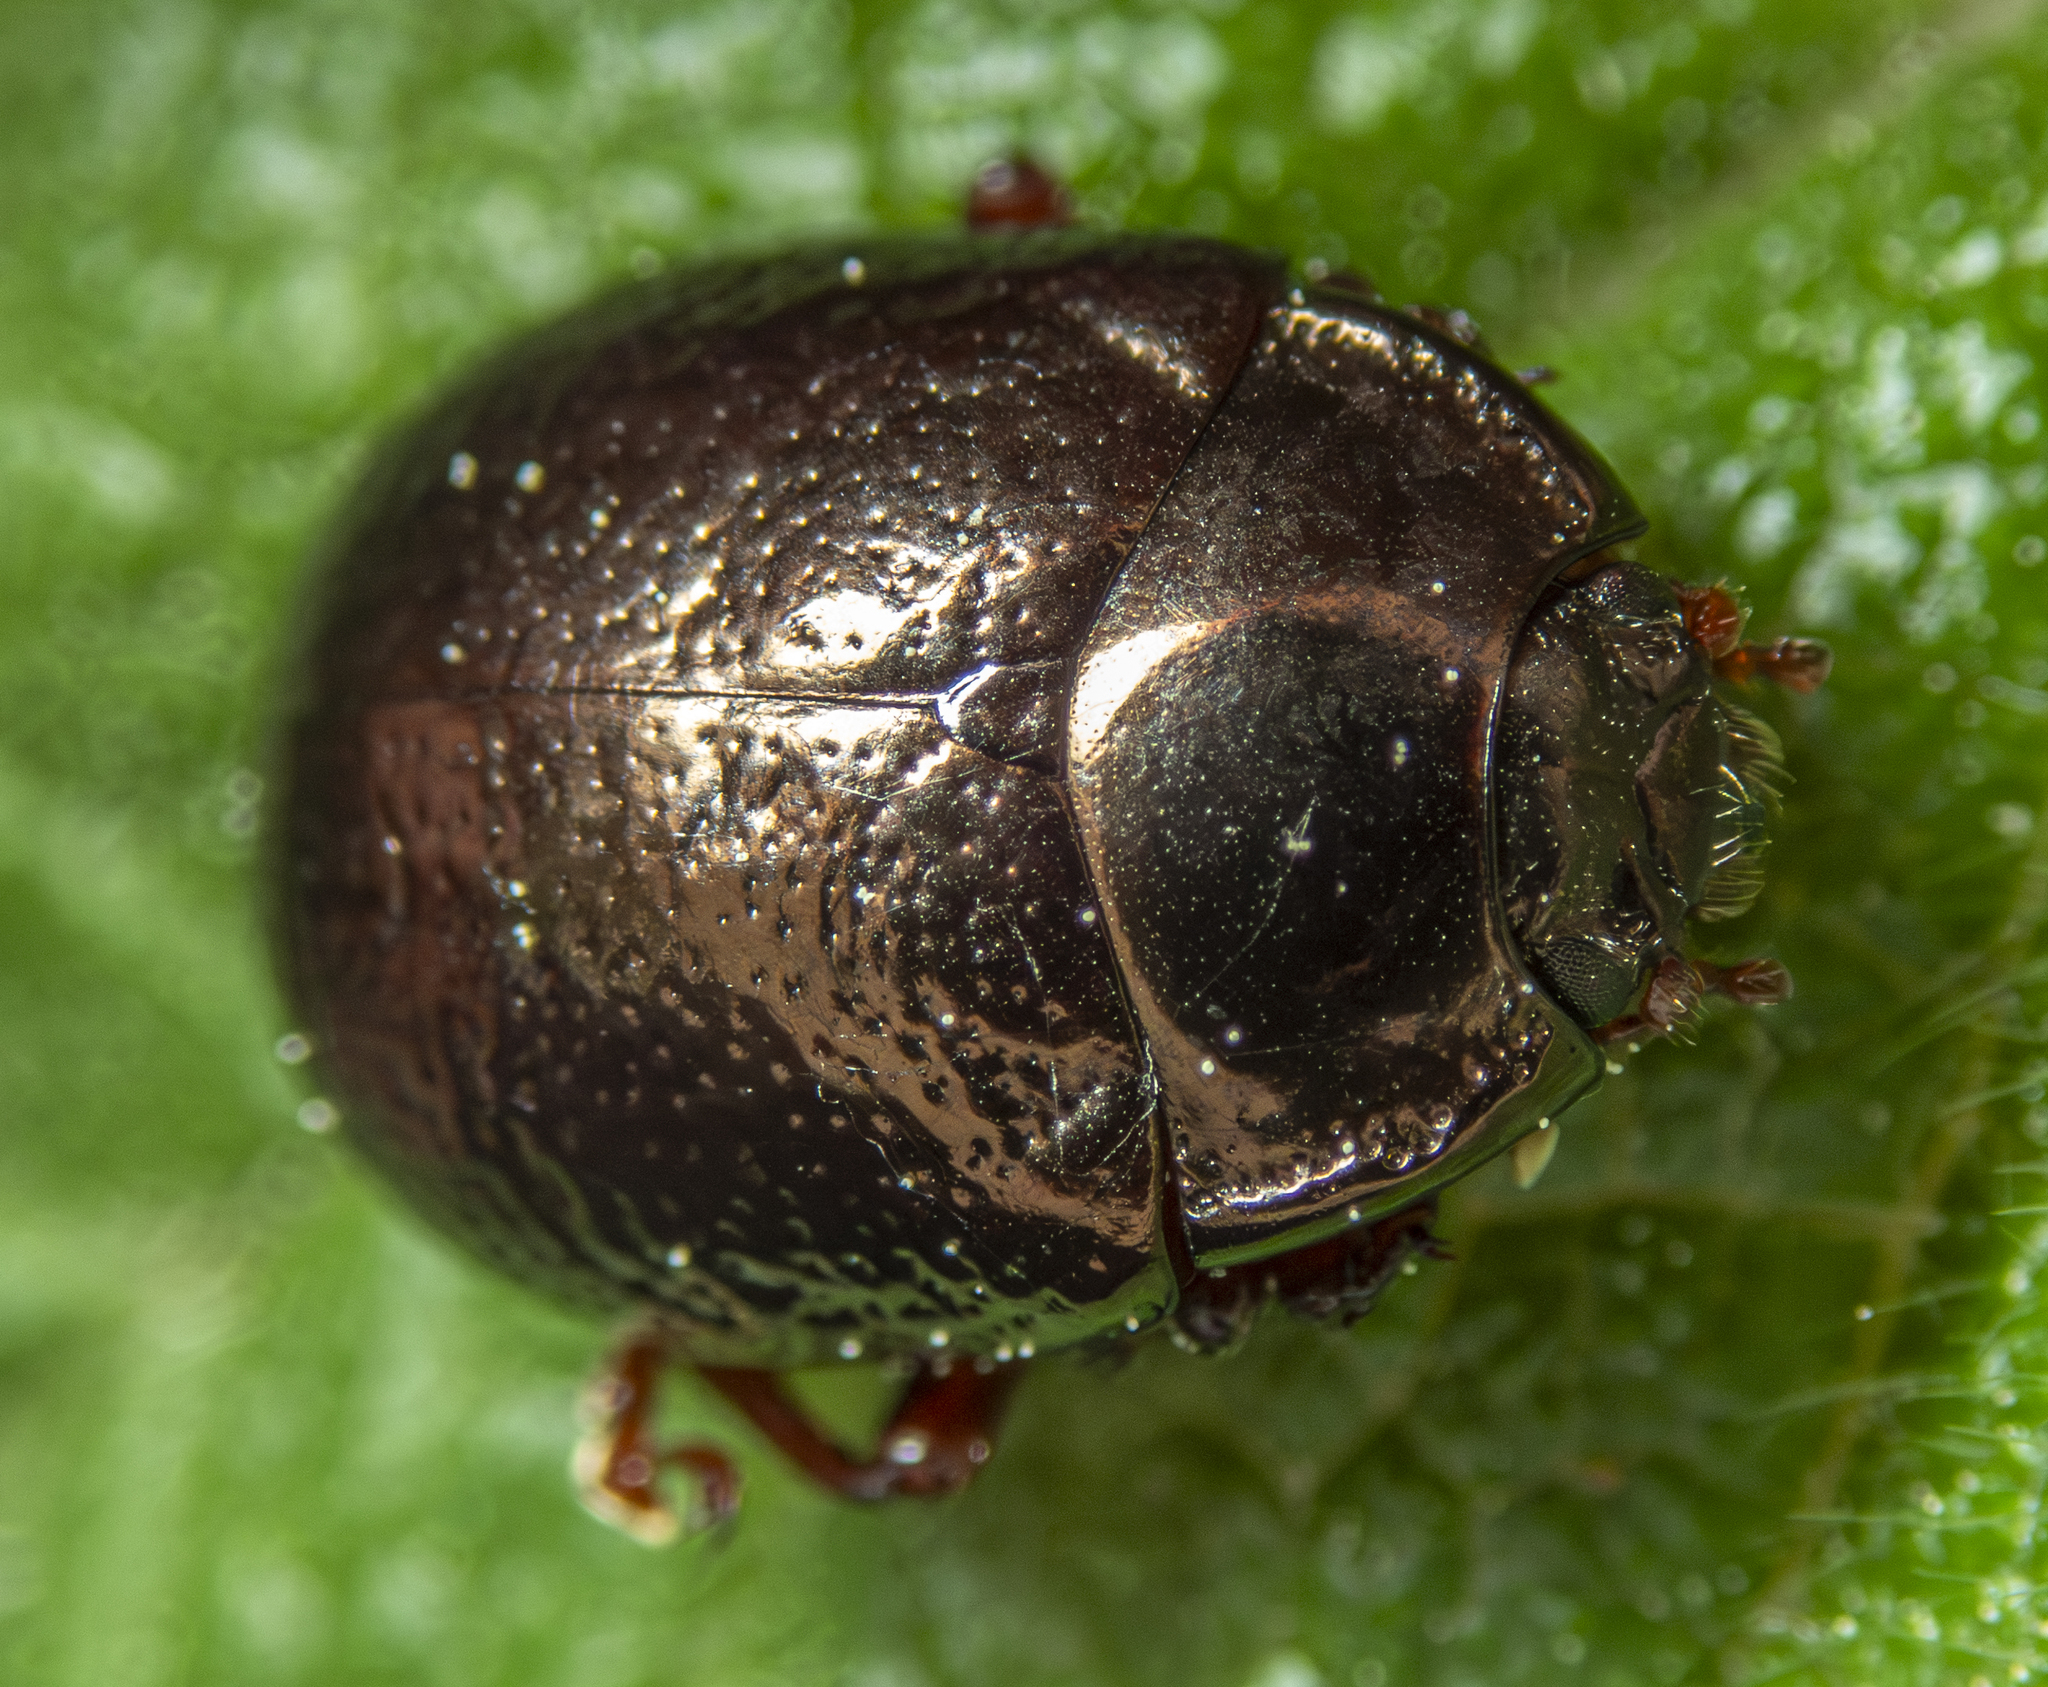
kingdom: Animalia
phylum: Arthropoda
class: Insecta
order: Coleoptera
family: Chrysomelidae
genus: Chrysolina
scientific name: Chrysolina bankii
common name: Leaf beetle
